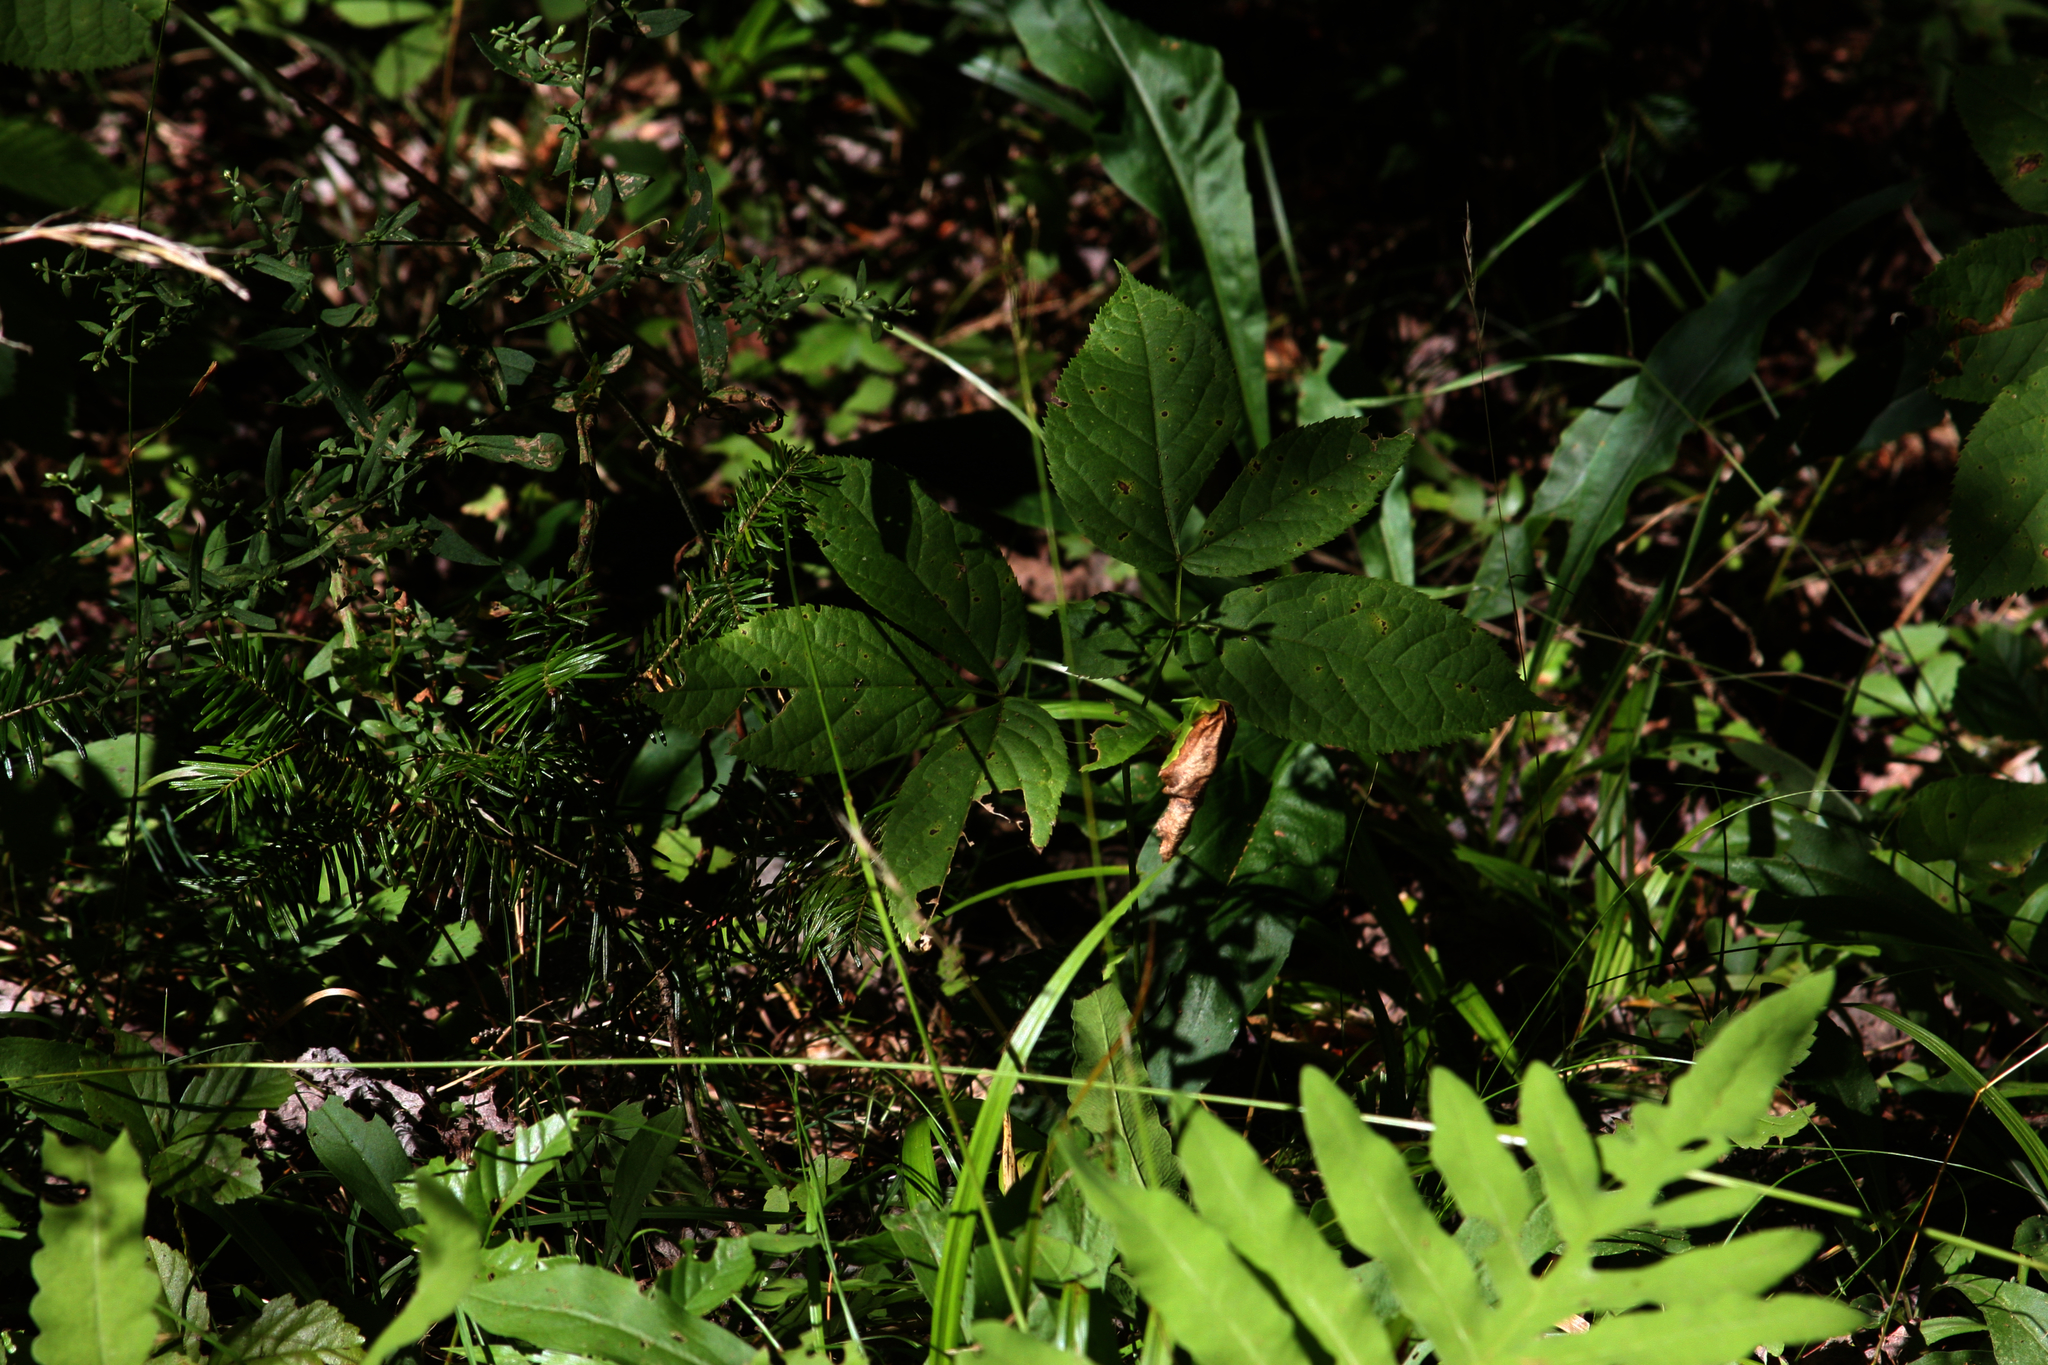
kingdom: Plantae
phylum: Tracheophyta
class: Magnoliopsida
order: Apiales
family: Araliaceae
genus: Aralia
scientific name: Aralia nudicaulis
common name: Wild sarsaparilla
